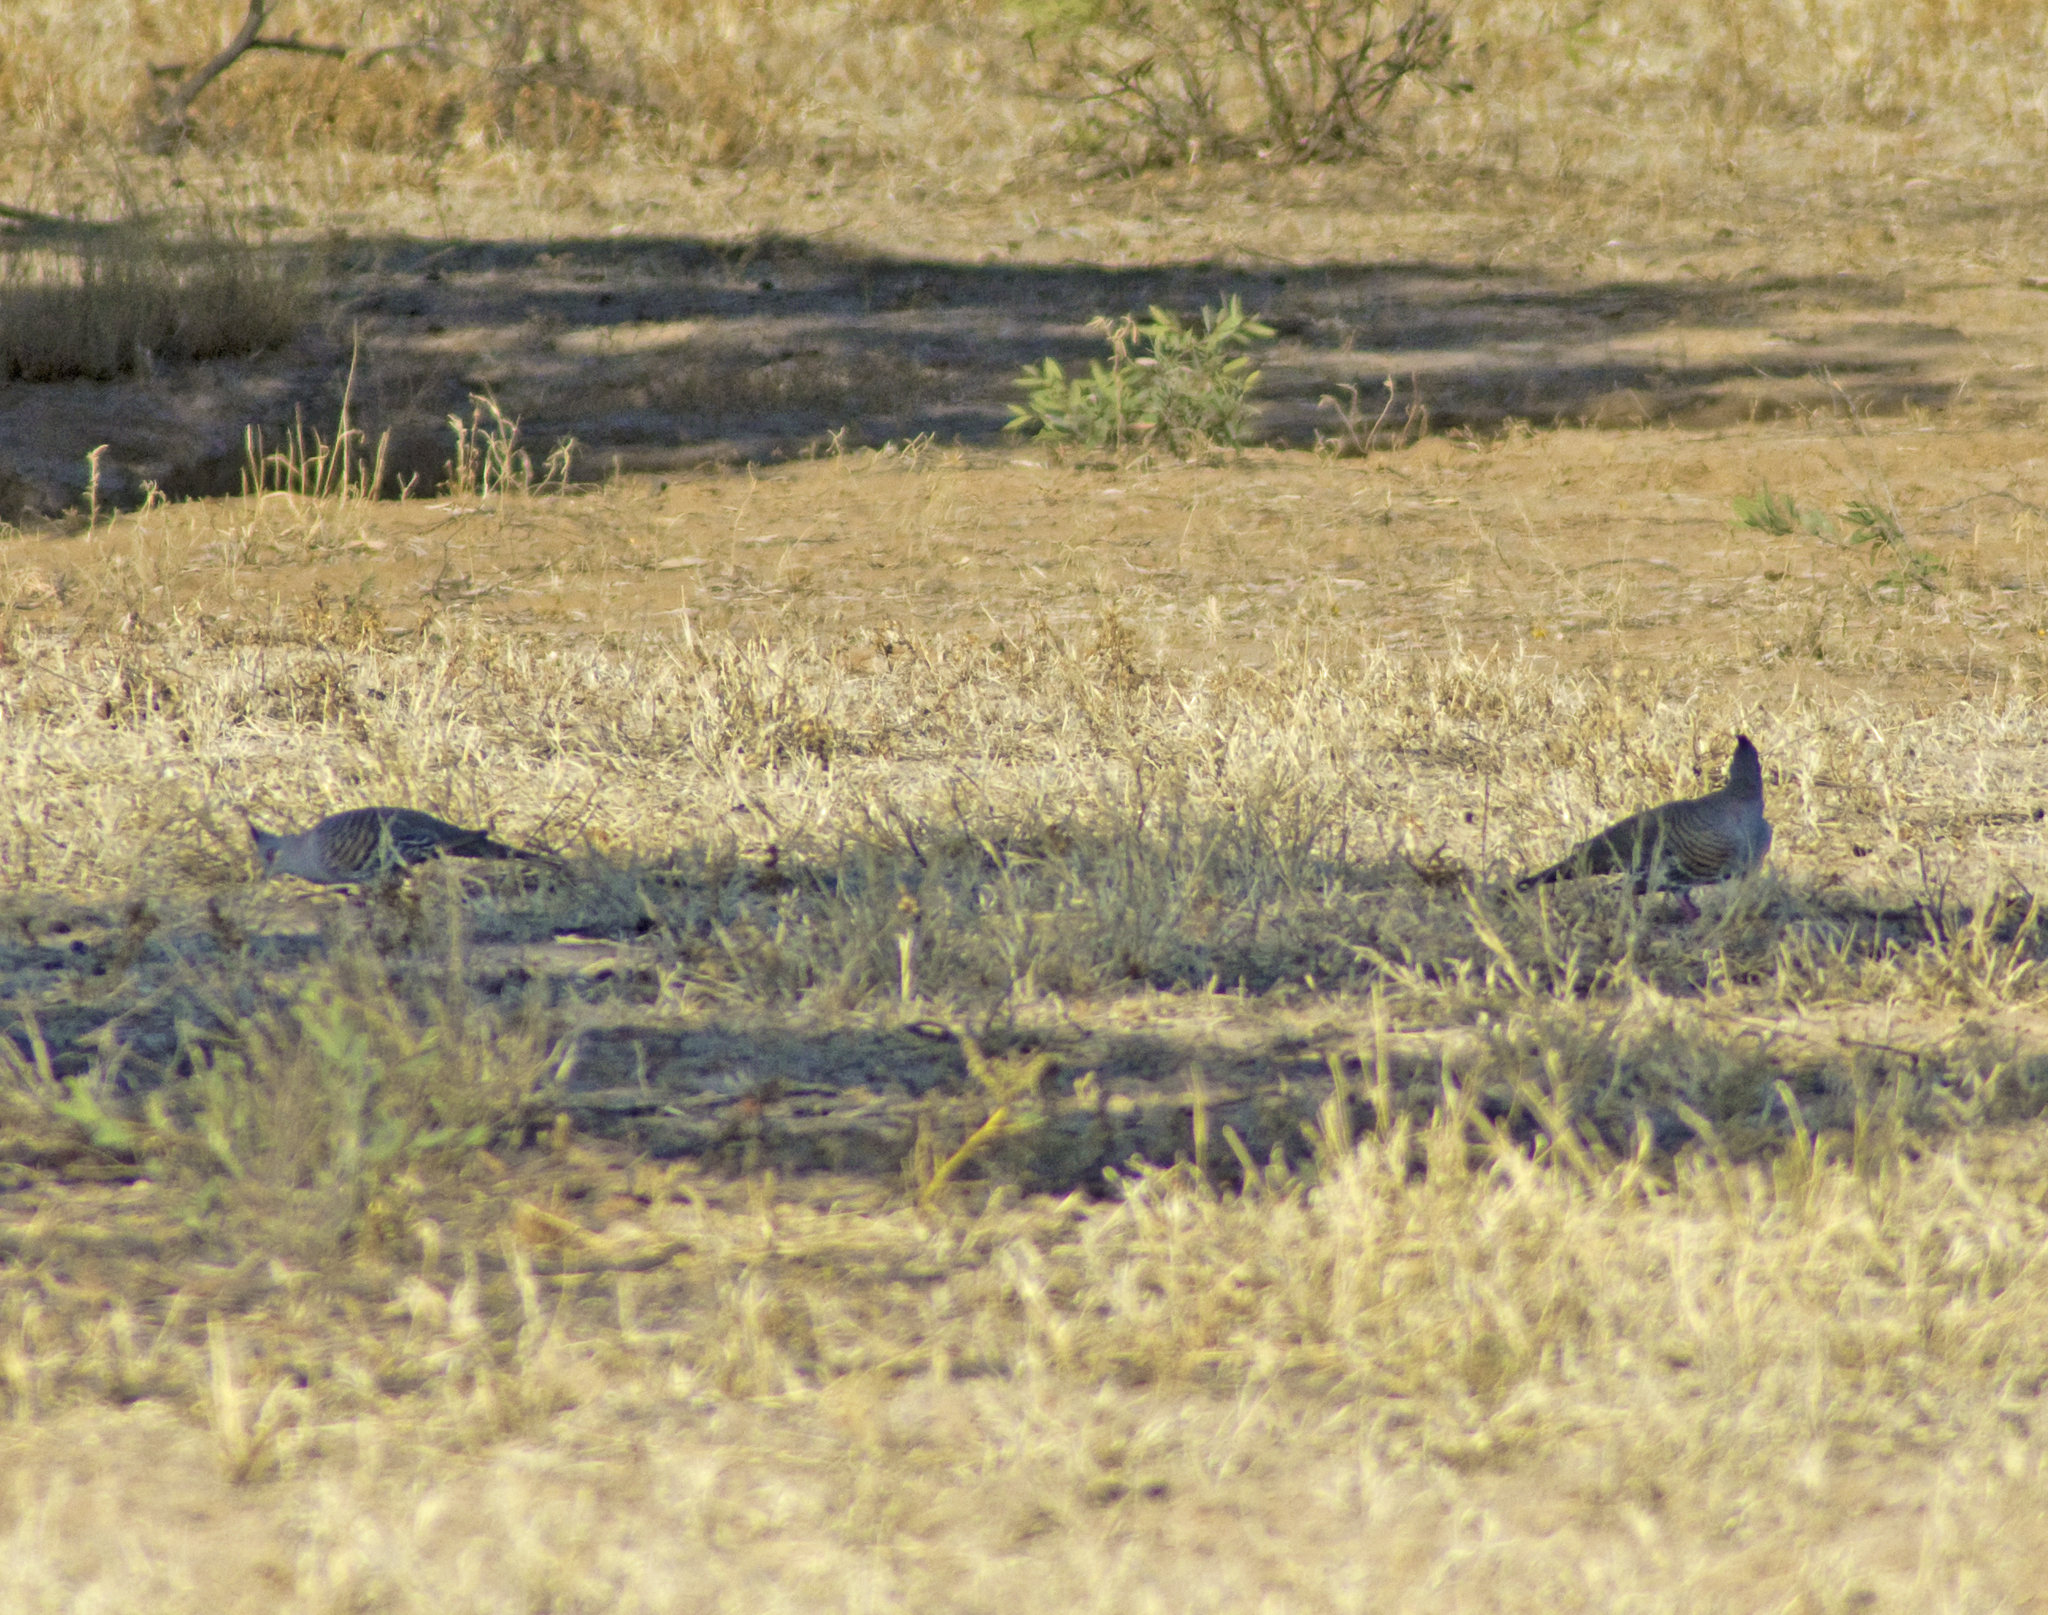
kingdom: Animalia
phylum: Chordata
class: Aves
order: Columbiformes
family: Columbidae
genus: Ocyphaps
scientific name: Ocyphaps lophotes
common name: Crested pigeon
